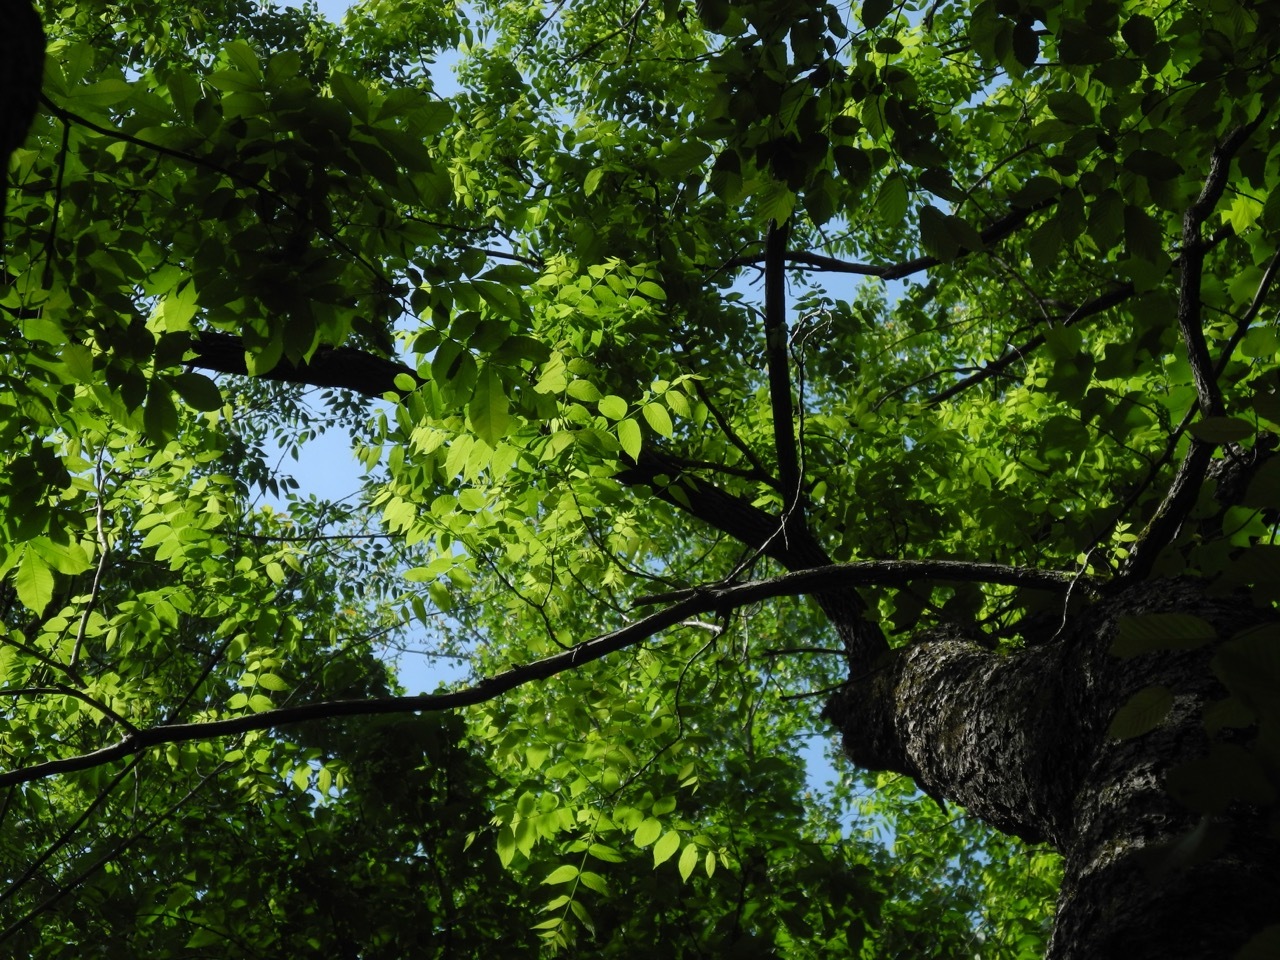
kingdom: Plantae
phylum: Tracheophyta
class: Magnoliopsida
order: Fagales
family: Juglandaceae
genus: Juglans
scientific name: Juglans nigra
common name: Black walnut
